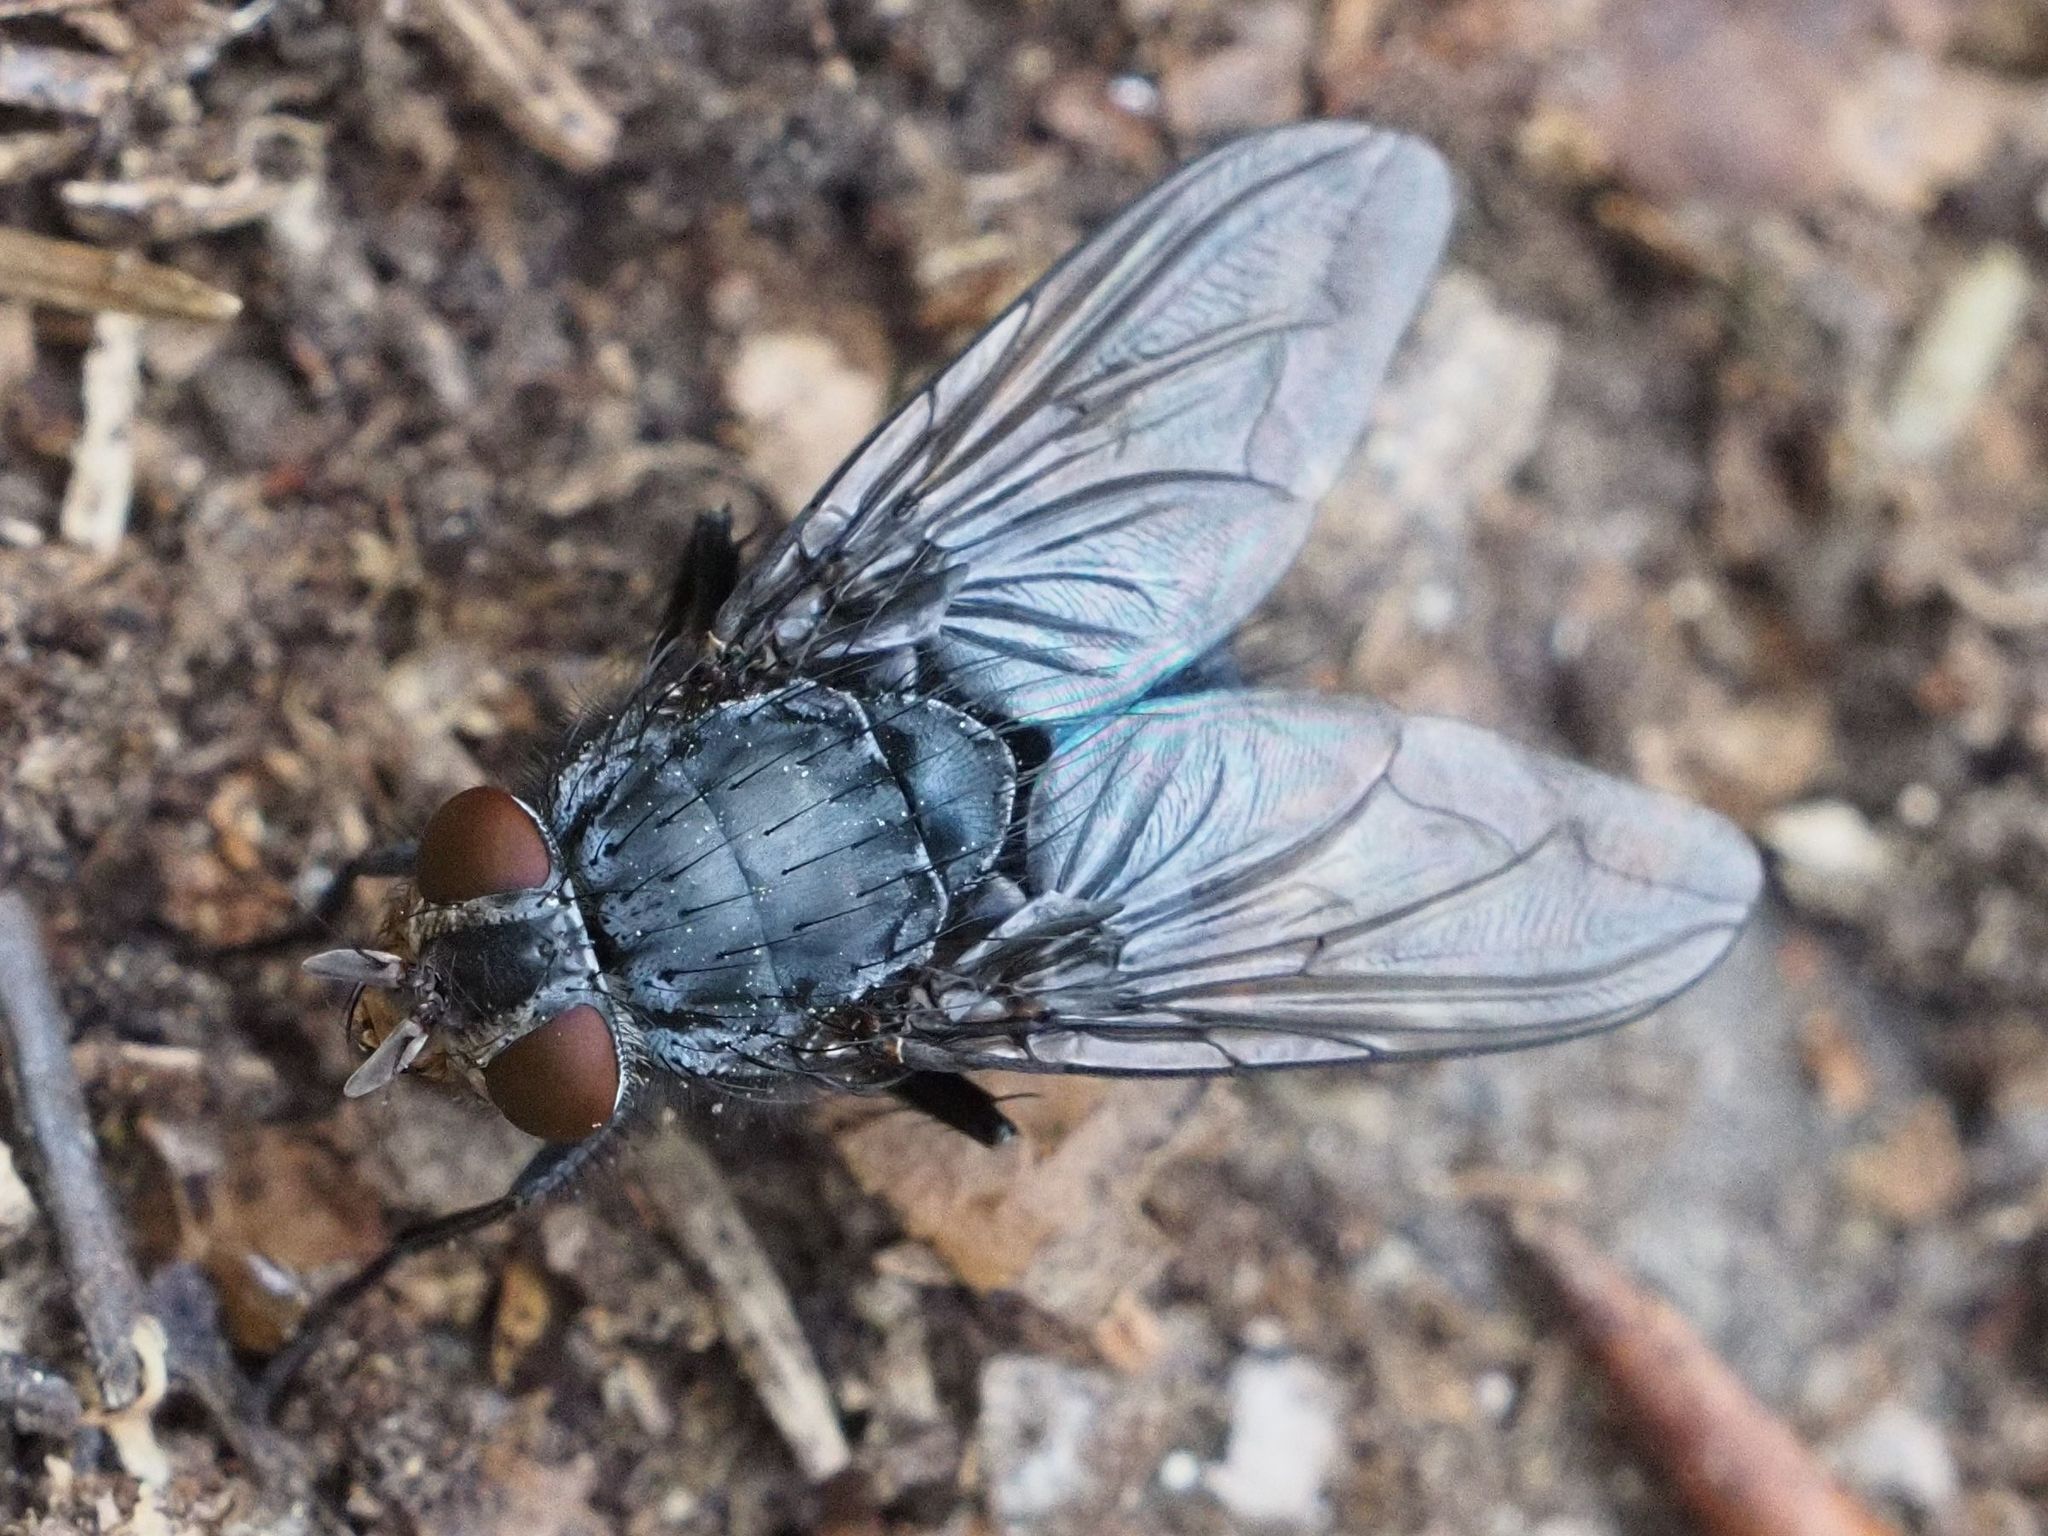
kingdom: Animalia
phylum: Arthropoda
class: Insecta
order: Diptera
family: Calliphoridae
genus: Calliphora
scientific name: Calliphora vicina
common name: Common blow flie
